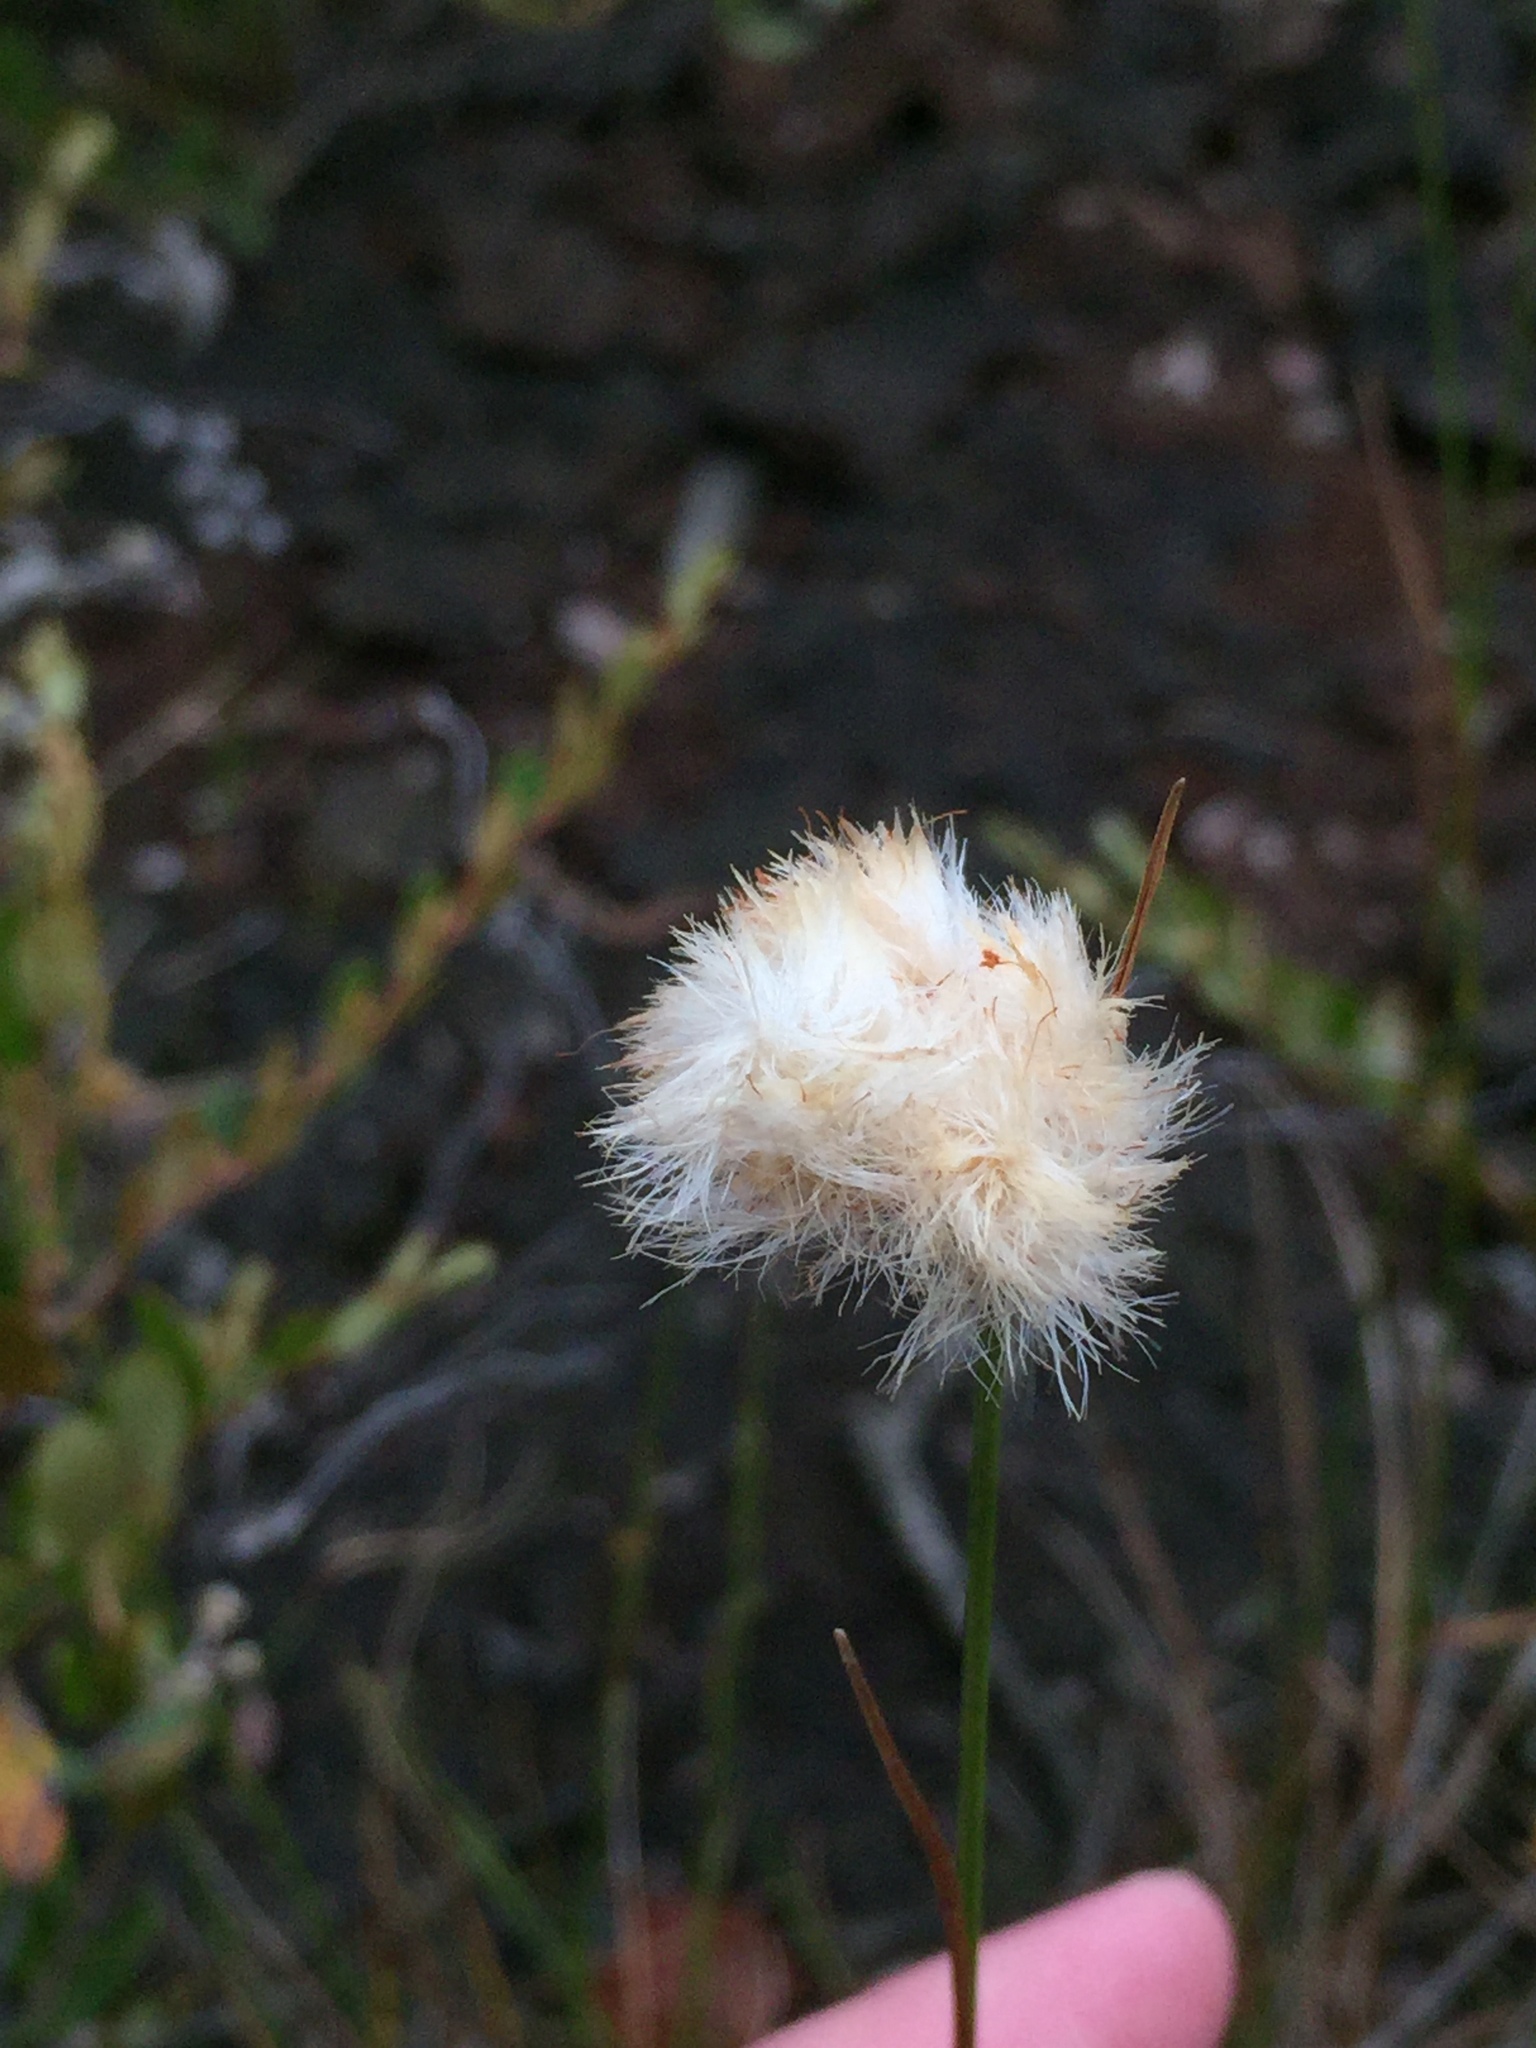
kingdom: Plantae
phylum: Tracheophyta
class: Liliopsida
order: Poales
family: Cyperaceae
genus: Eriophorum
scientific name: Eriophorum virginicum
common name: Tawny cottongrass
